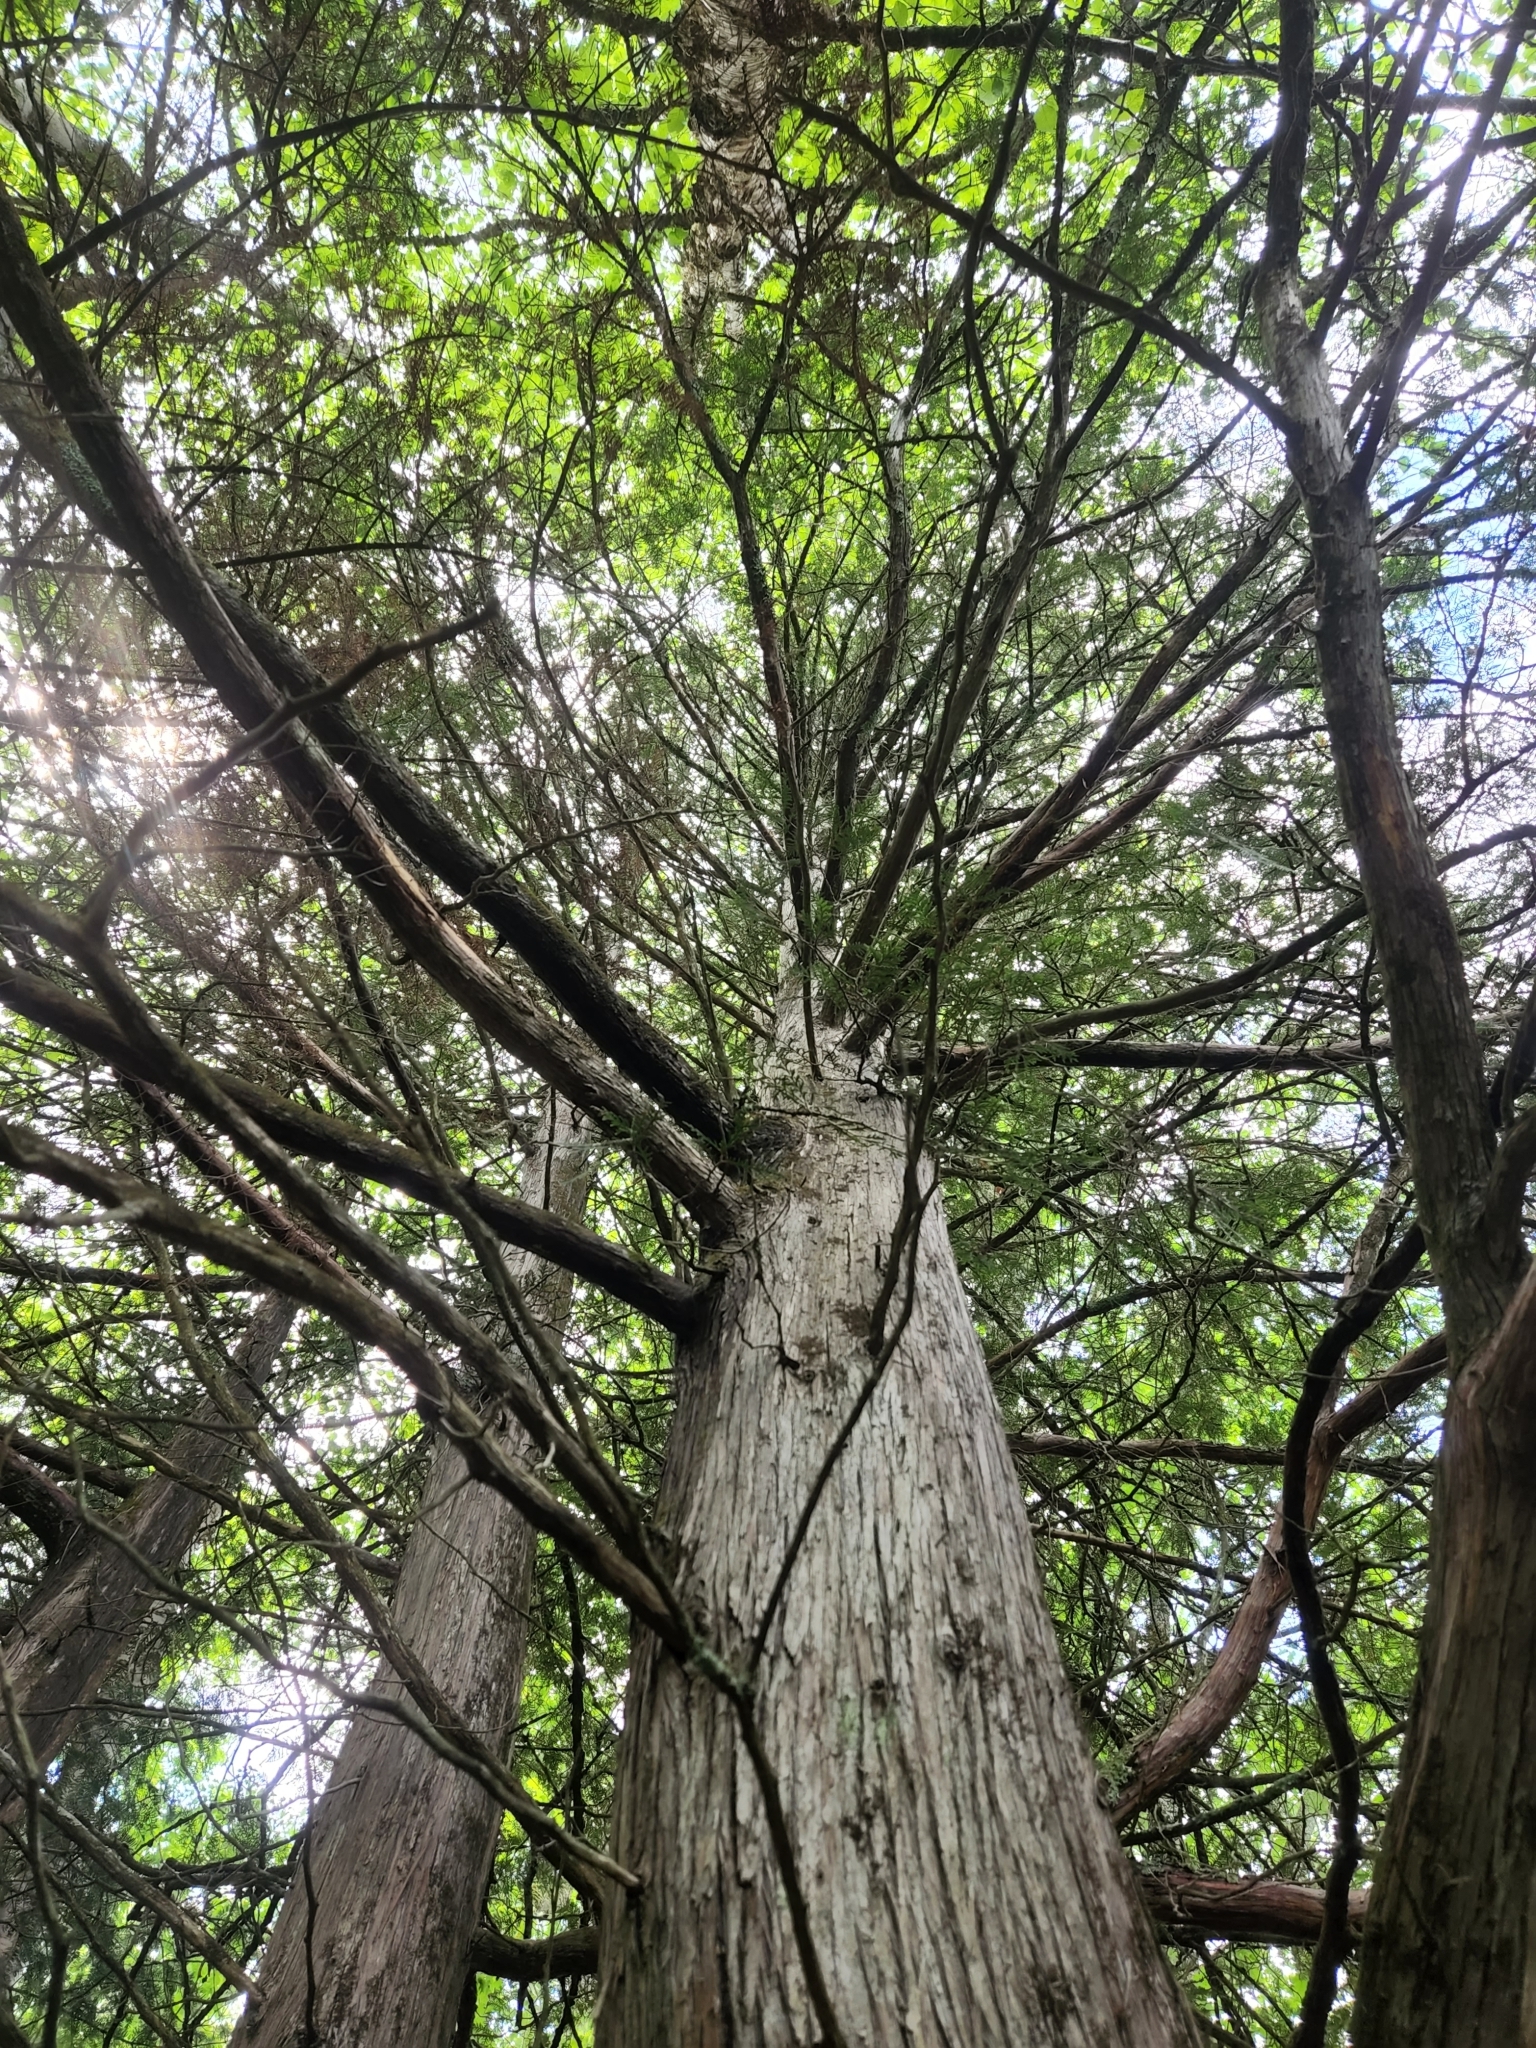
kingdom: Plantae
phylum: Tracheophyta
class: Pinopsida
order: Pinales
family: Cupressaceae
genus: Thuja
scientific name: Thuja occidentalis
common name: Northern white-cedar
